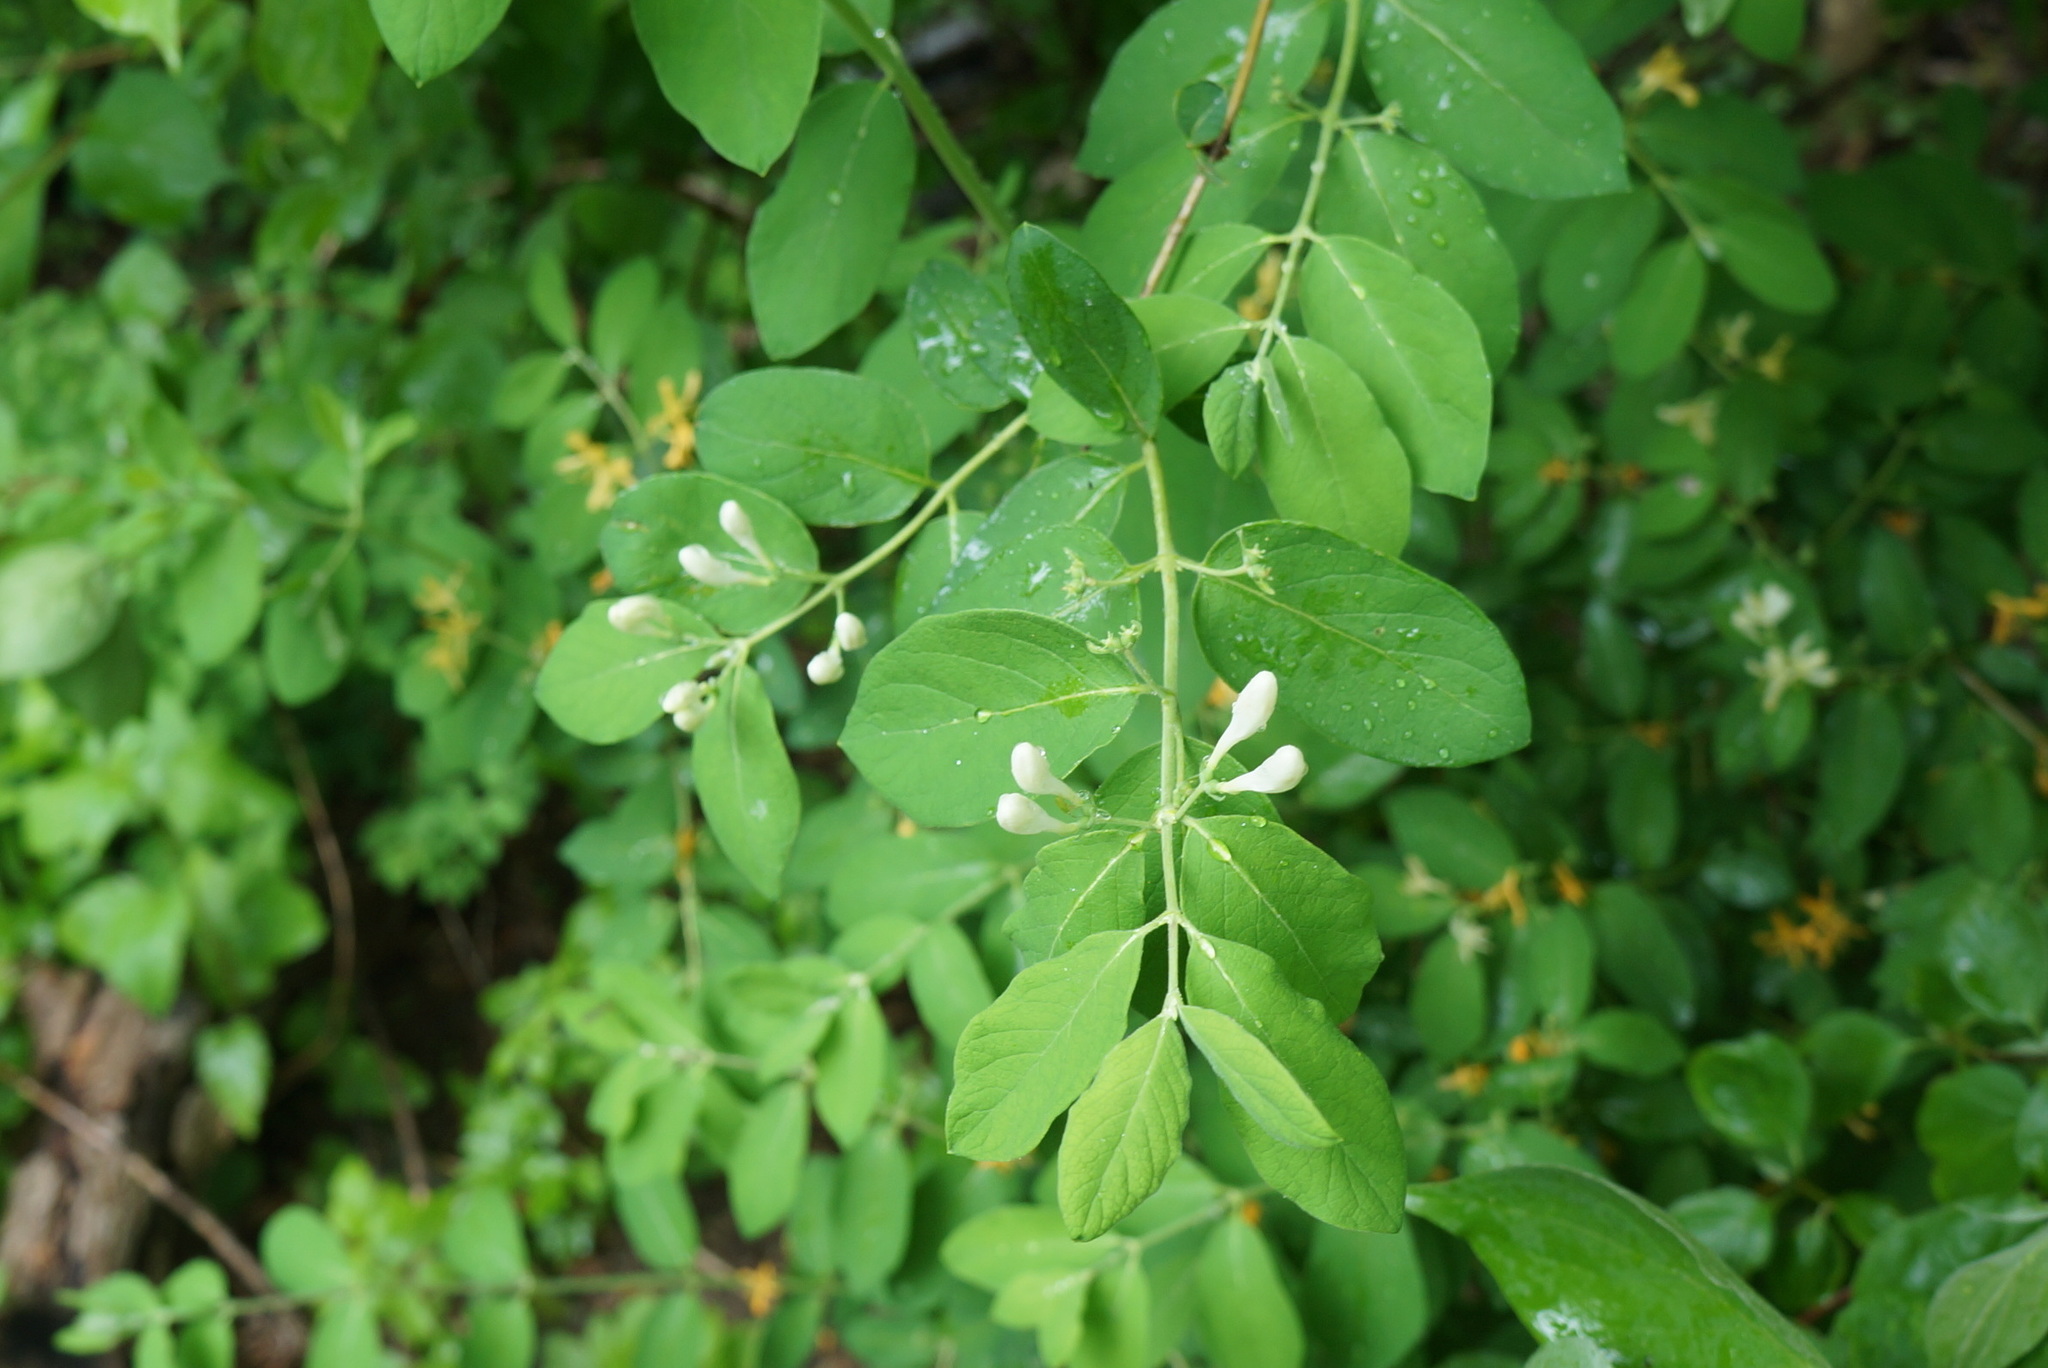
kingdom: Plantae
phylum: Tracheophyta
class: Magnoliopsida
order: Dipsacales
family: Caprifoliaceae
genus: Lonicera
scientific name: Lonicera morrowii
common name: Morrow's honeysuckle
